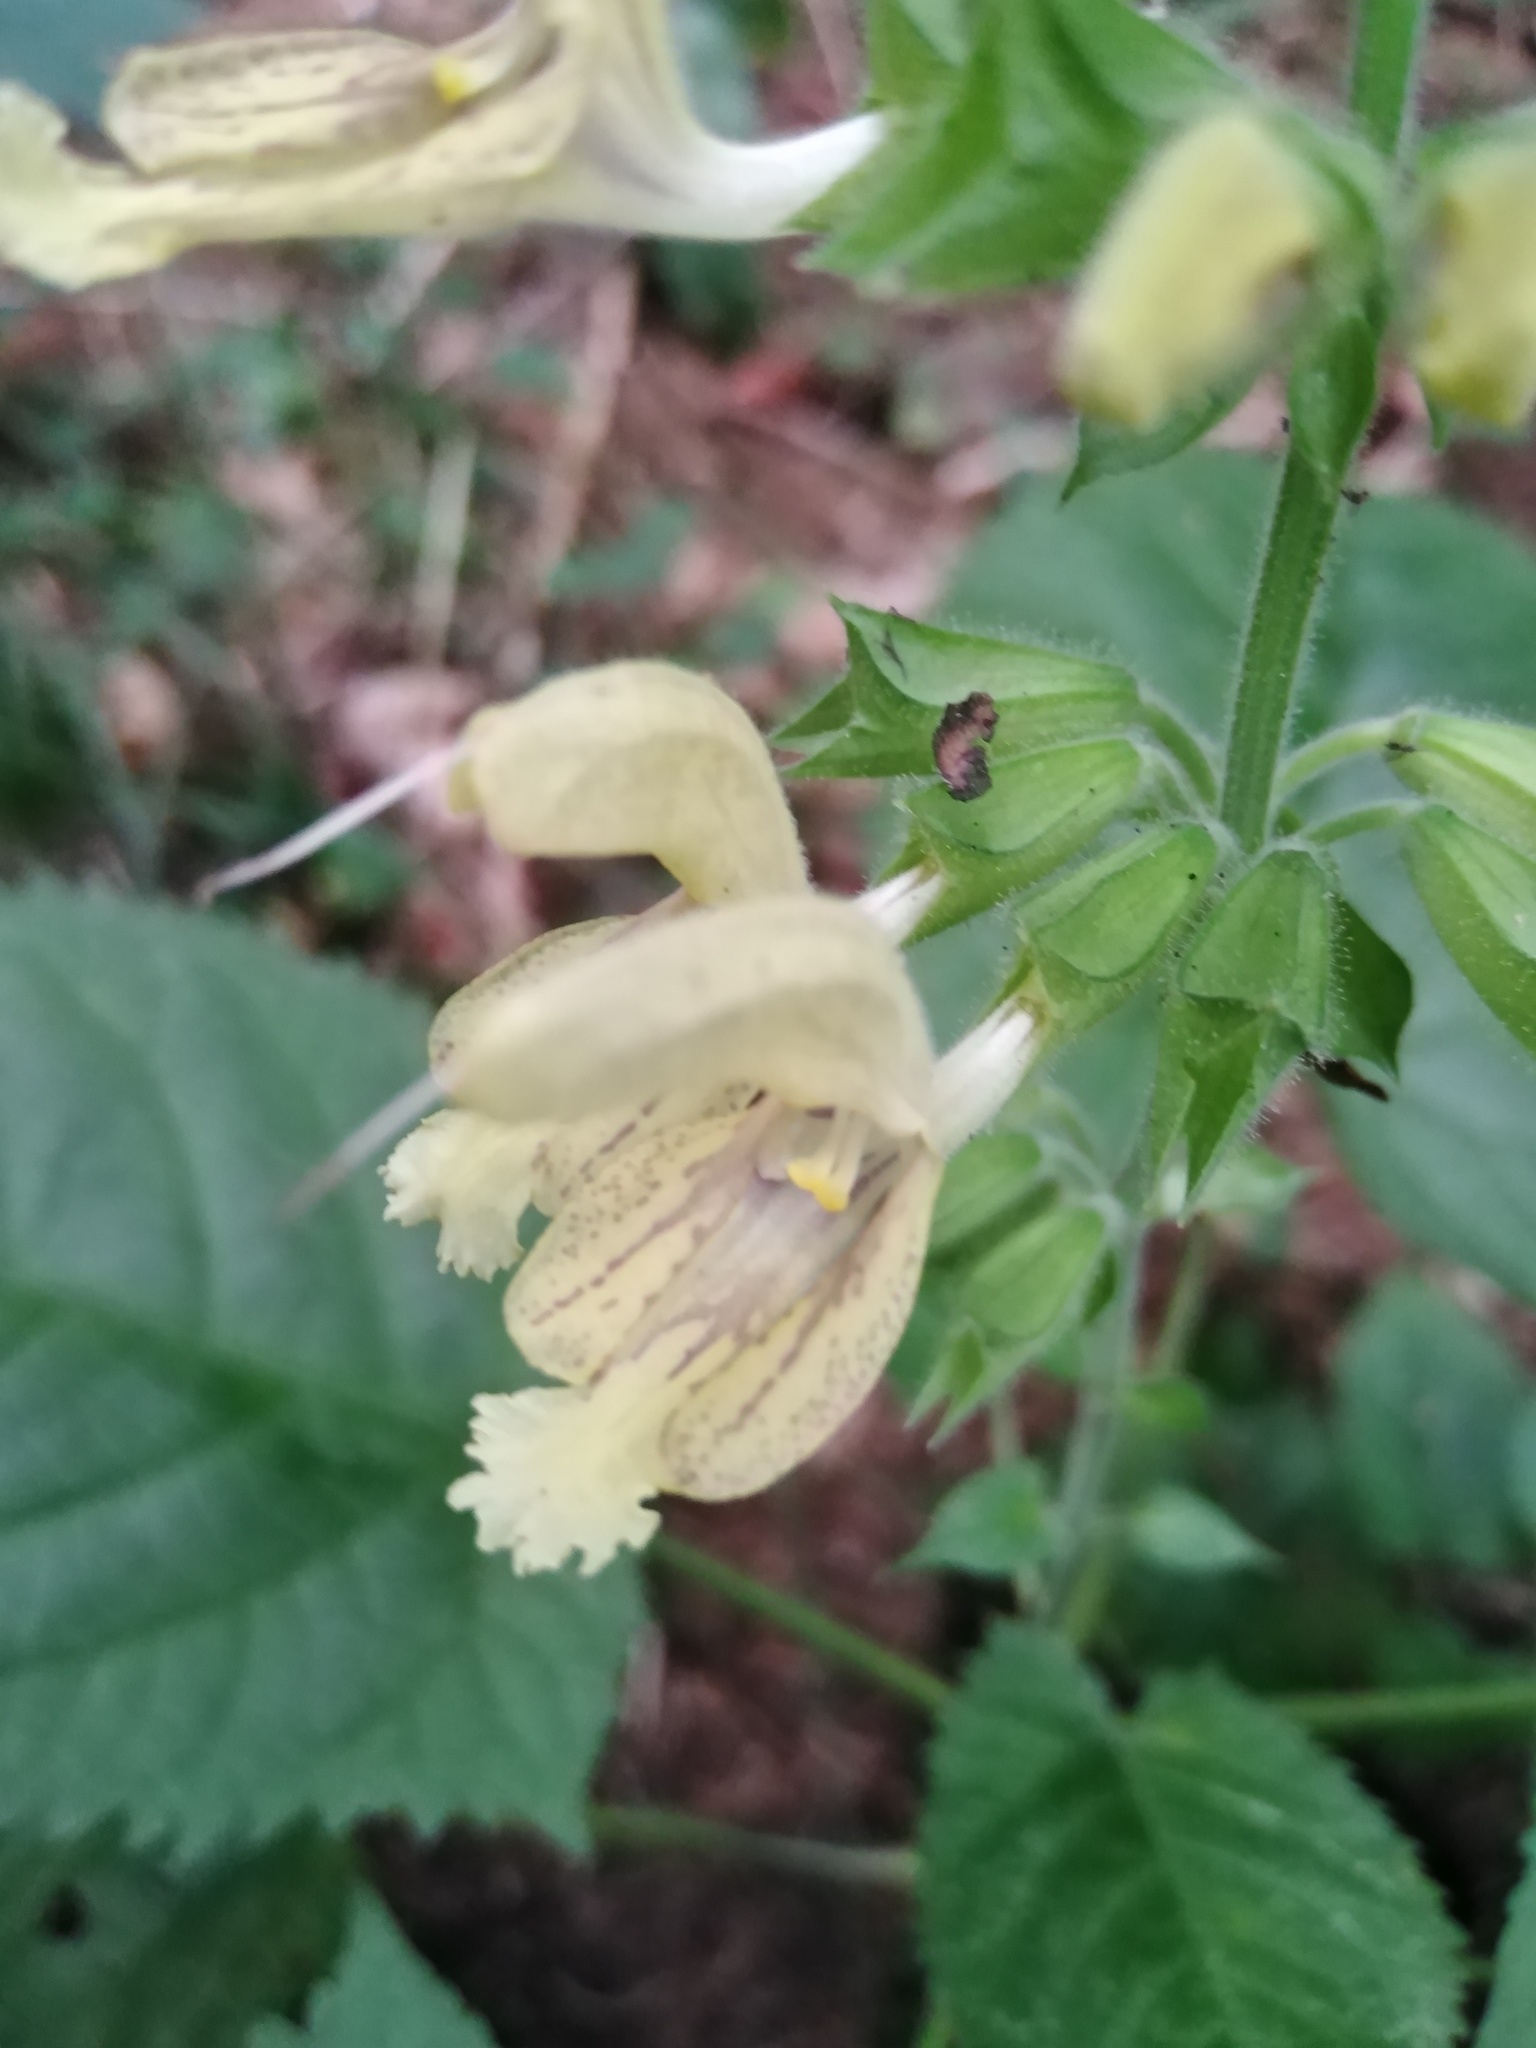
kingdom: Plantae
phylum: Tracheophyta
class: Magnoliopsida
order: Lamiales
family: Lamiaceae
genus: Salvia
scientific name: Salvia glutinosa
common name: Sticky clary
